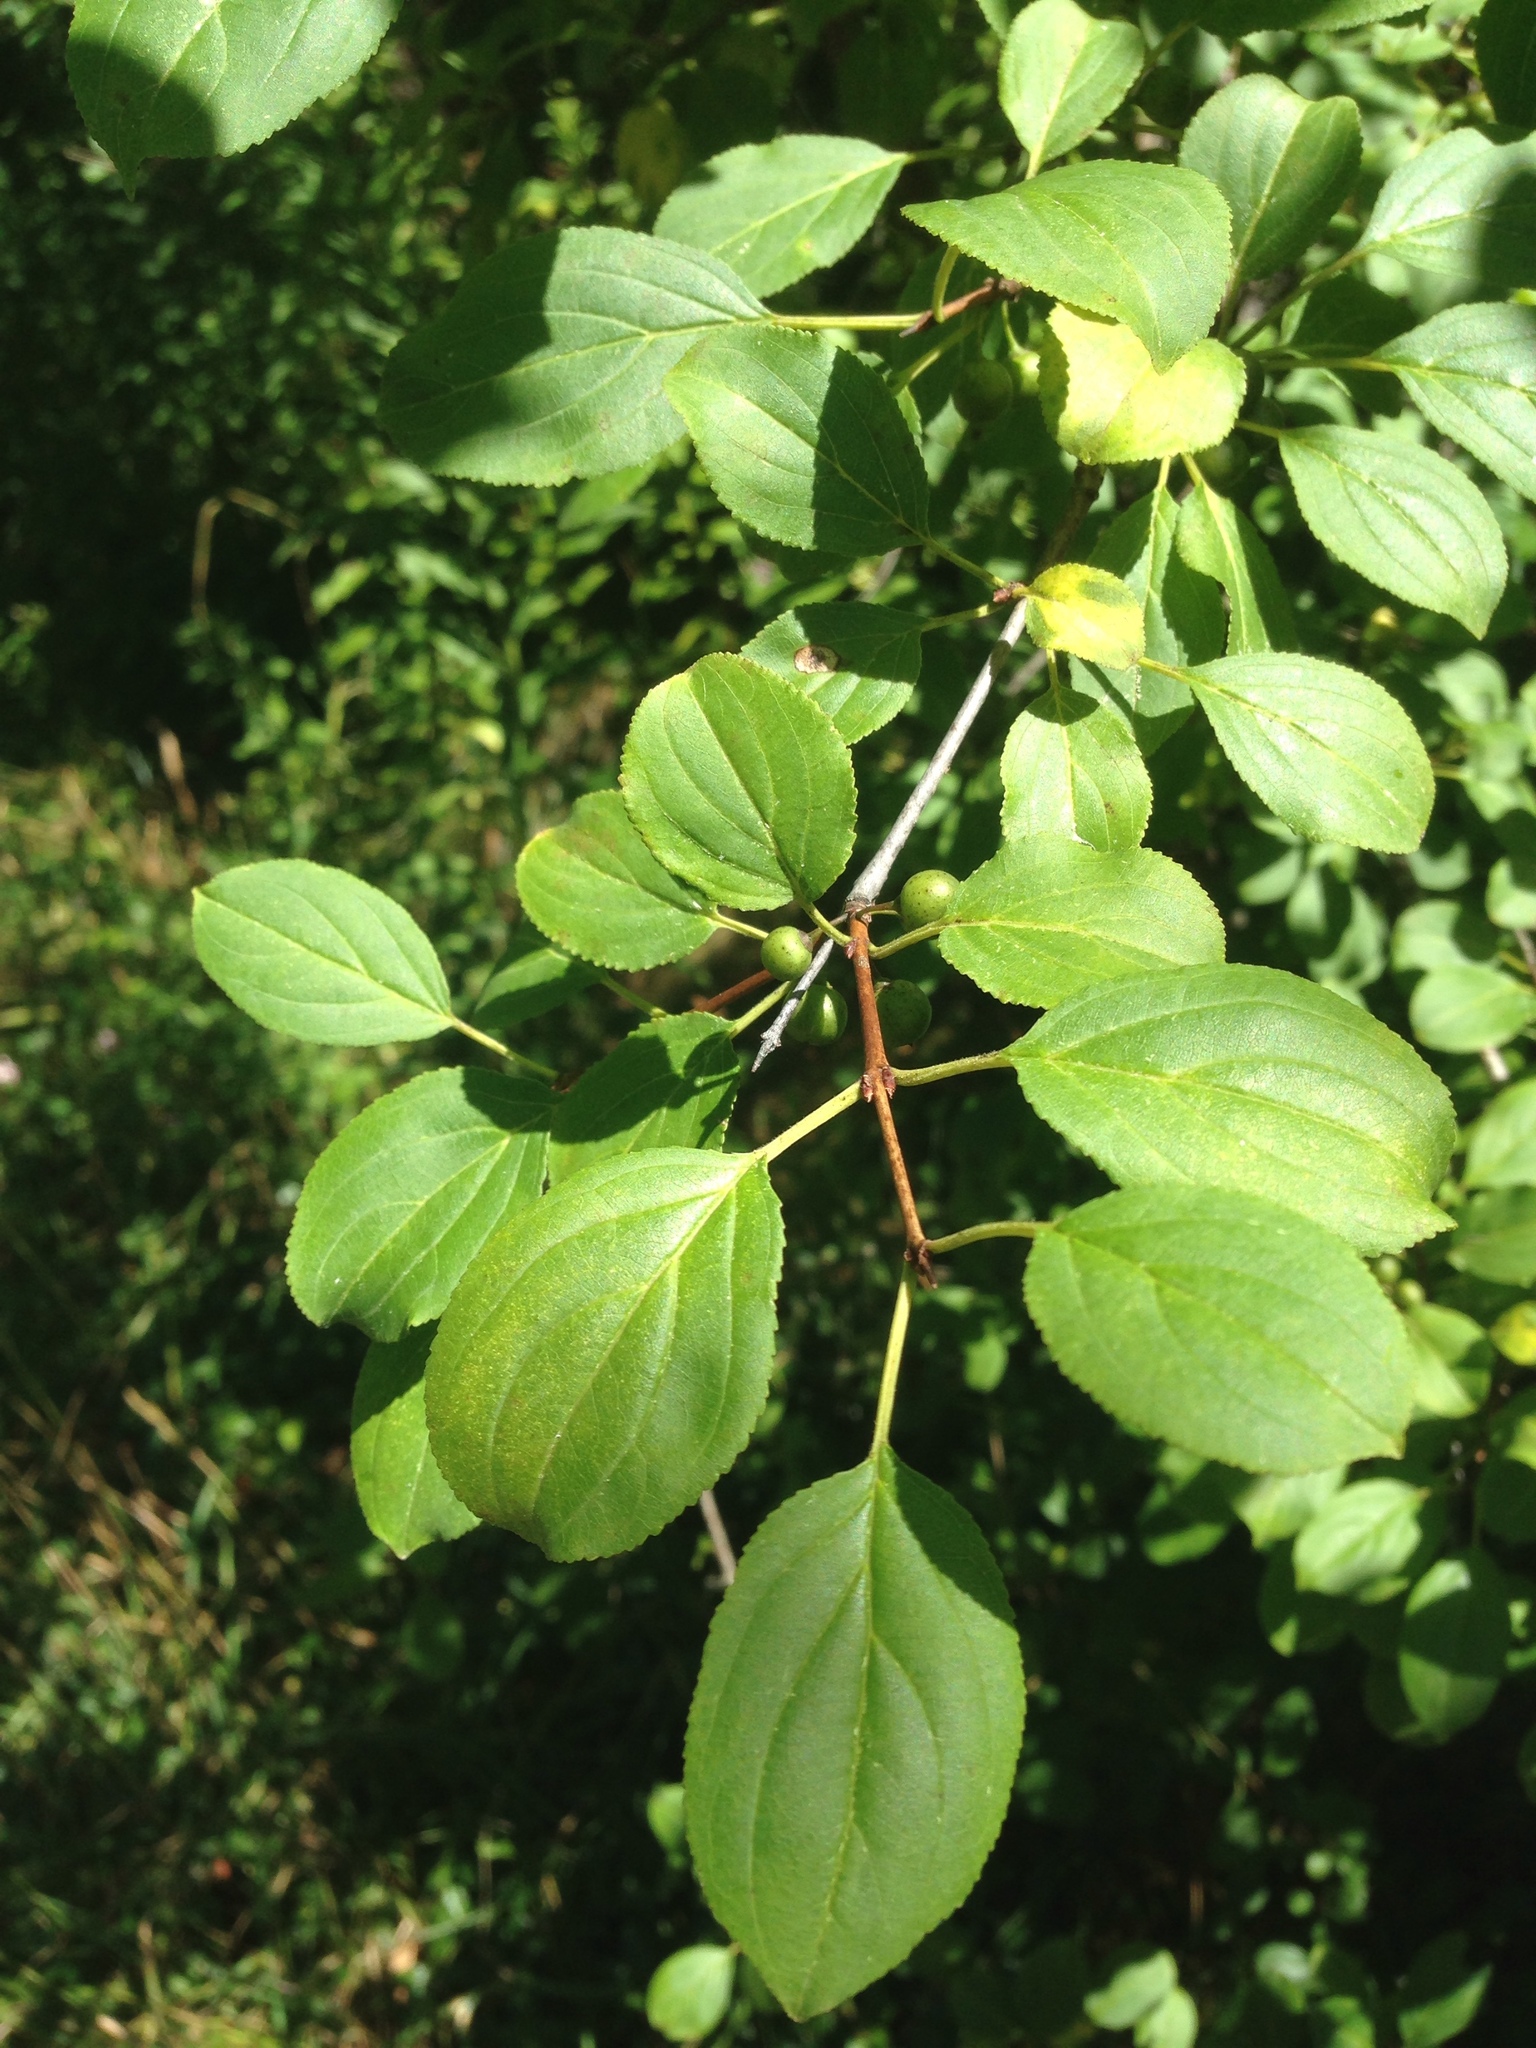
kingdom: Plantae
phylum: Tracheophyta
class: Magnoliopsida
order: Rosales
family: Rhamnaceae
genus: Rhamnus
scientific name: Rhamnus cathartica
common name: Common buckthorn
